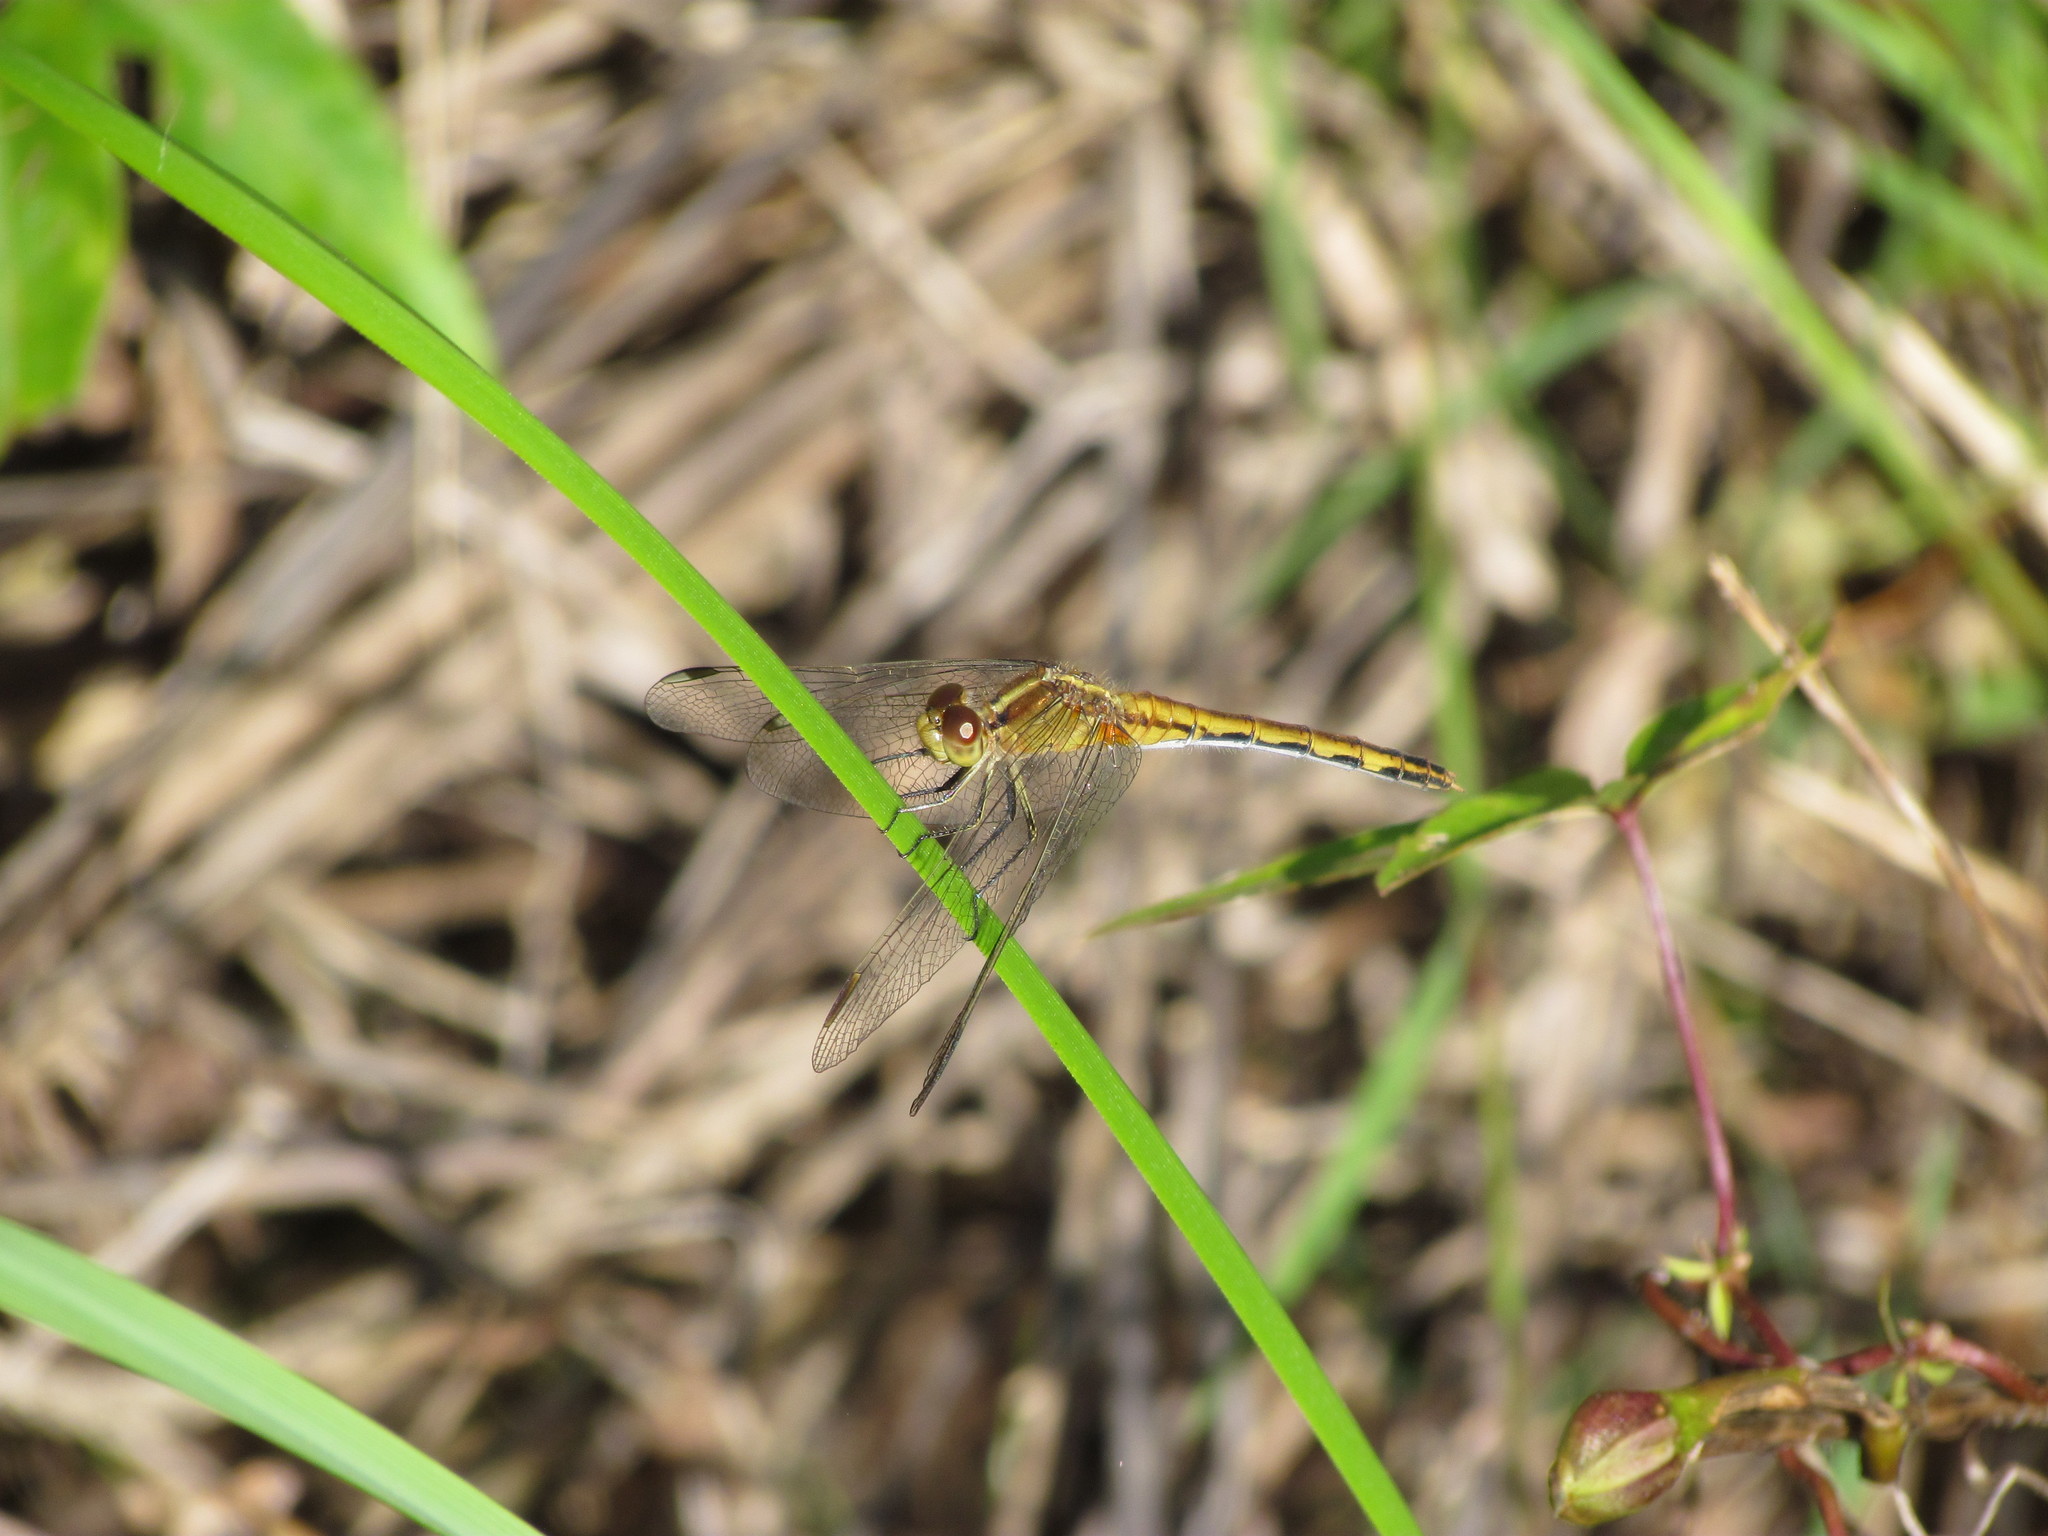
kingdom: Animalia
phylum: Arthropoda
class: Insecta
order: Odonata
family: Libellulidae
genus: Erythrodiplax
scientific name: Erythrodiplax nigricans
